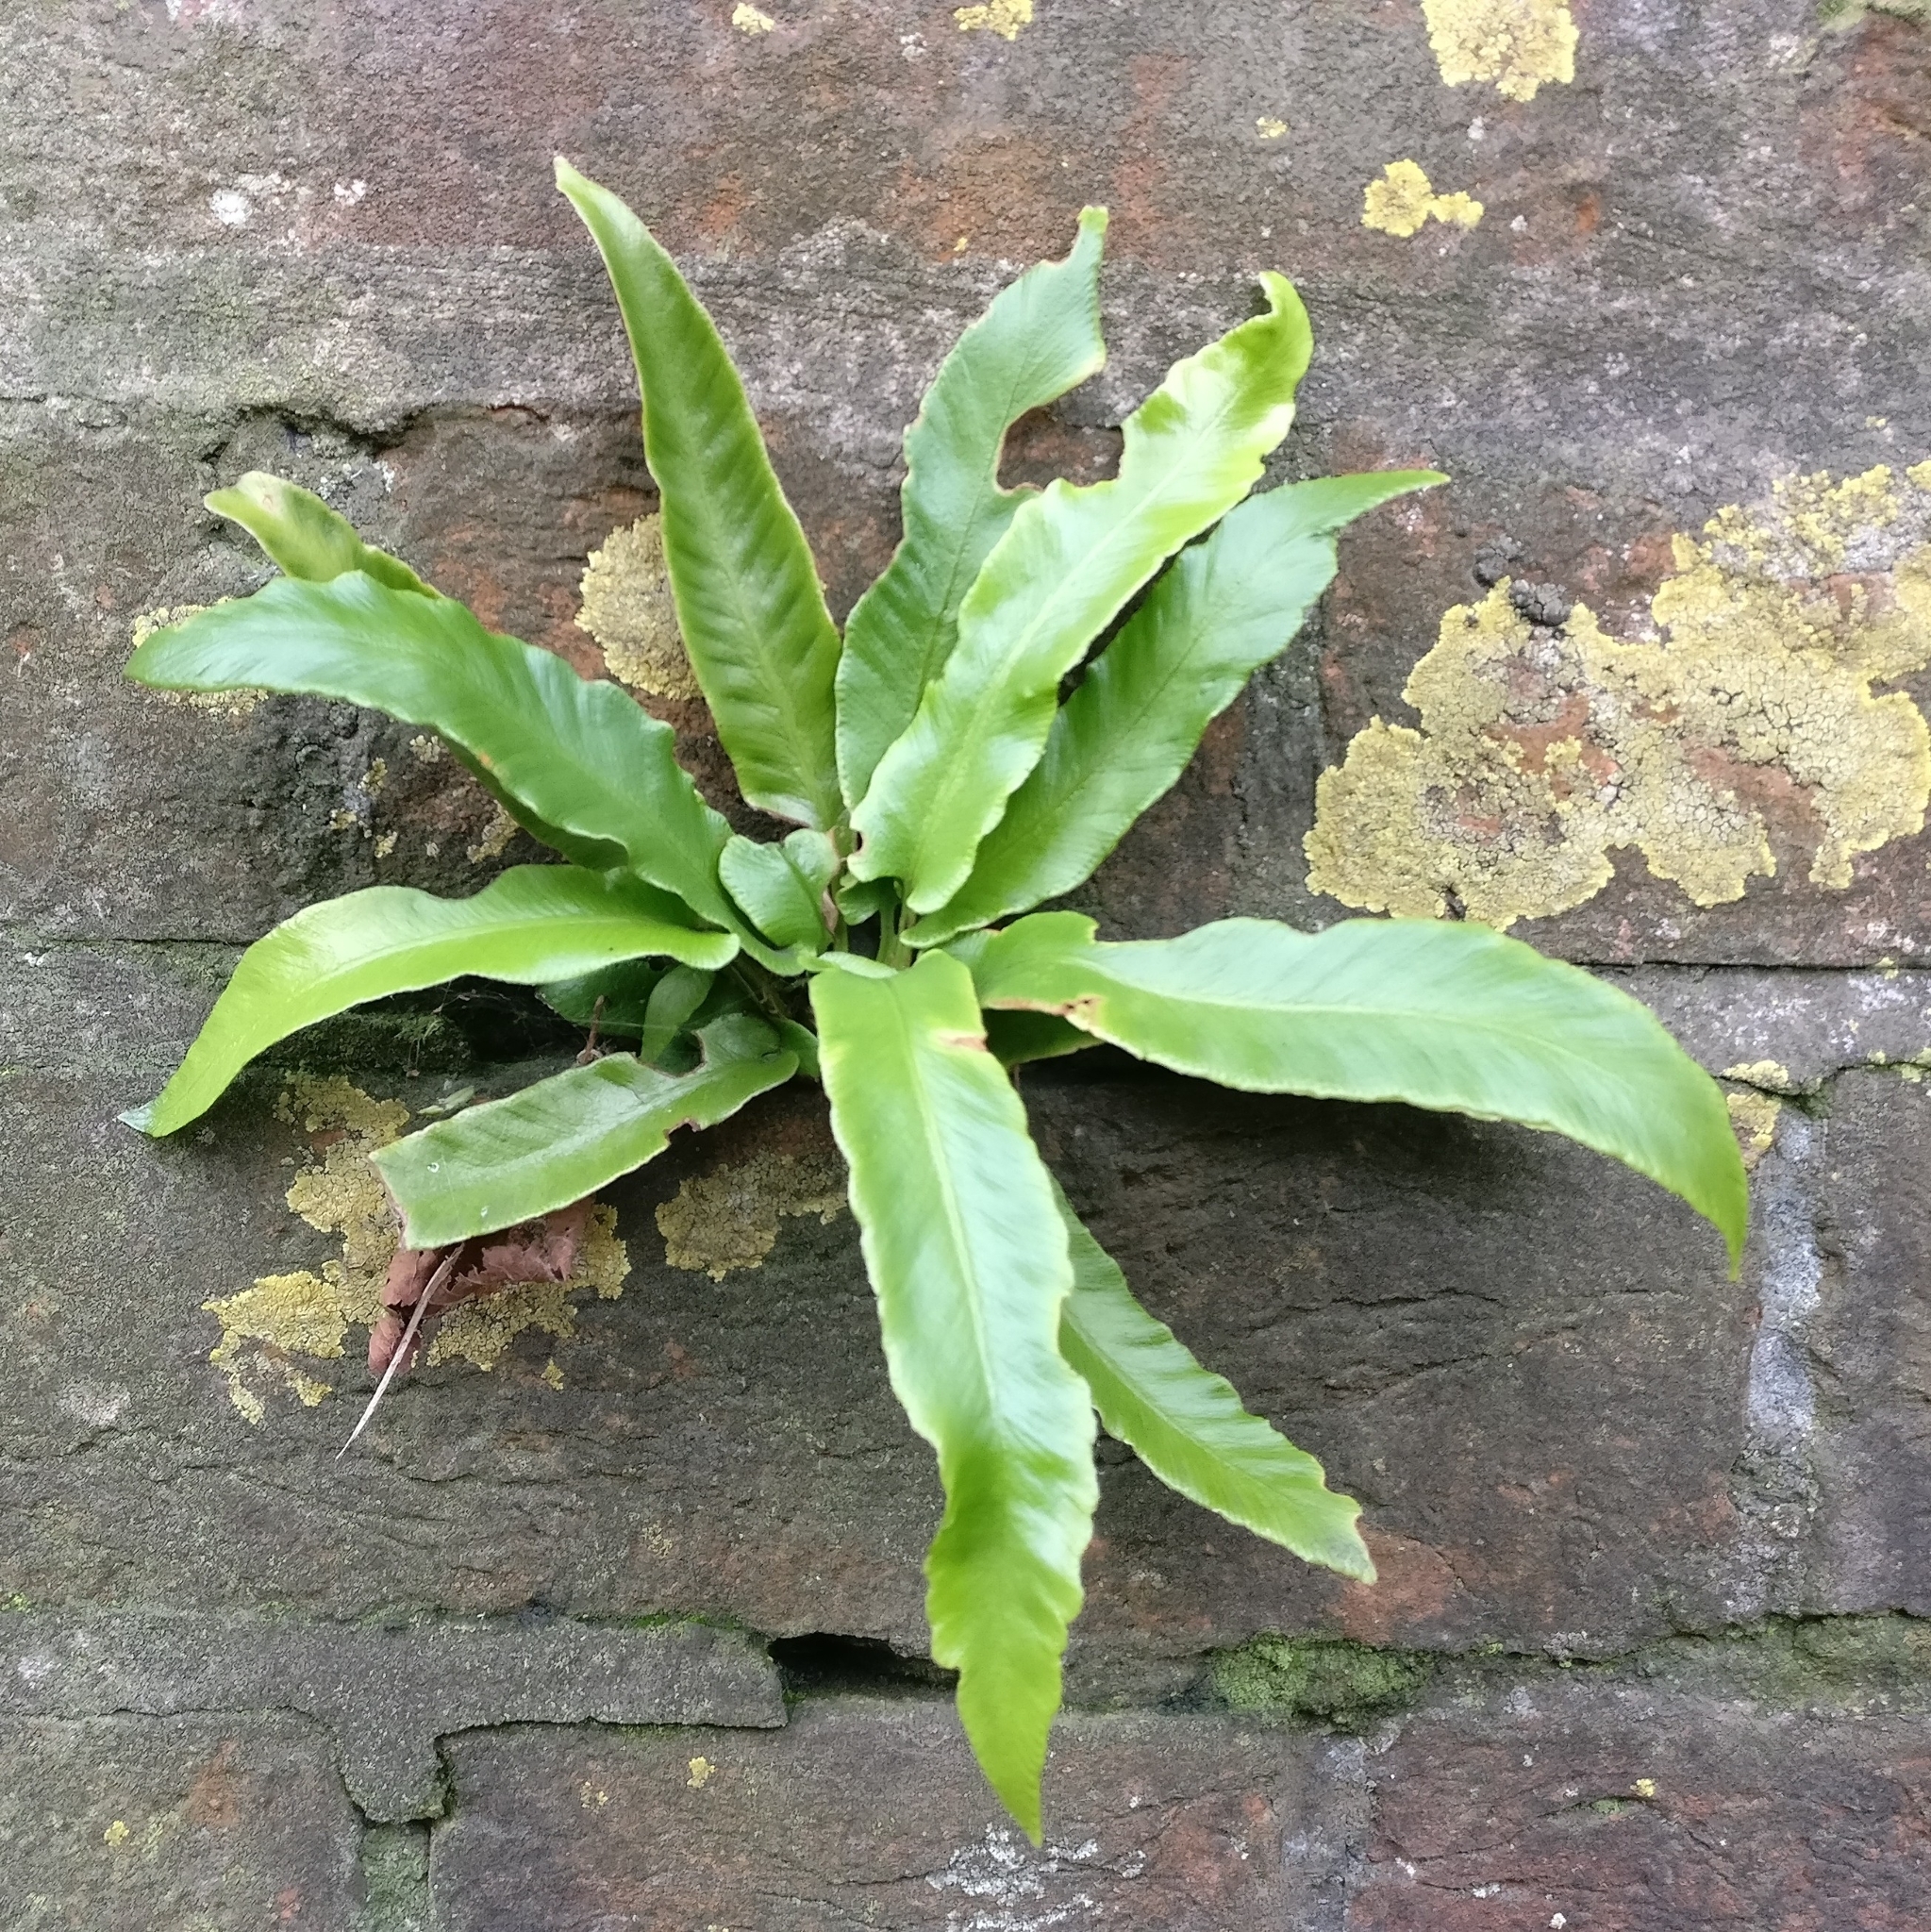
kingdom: Plantae
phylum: Tracheophyta
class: Polypodiopsida
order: Polypodiales
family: Aspleniaceae
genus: Asplenium
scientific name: Asplenium scolopendrium
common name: Hart's-tongue fern
